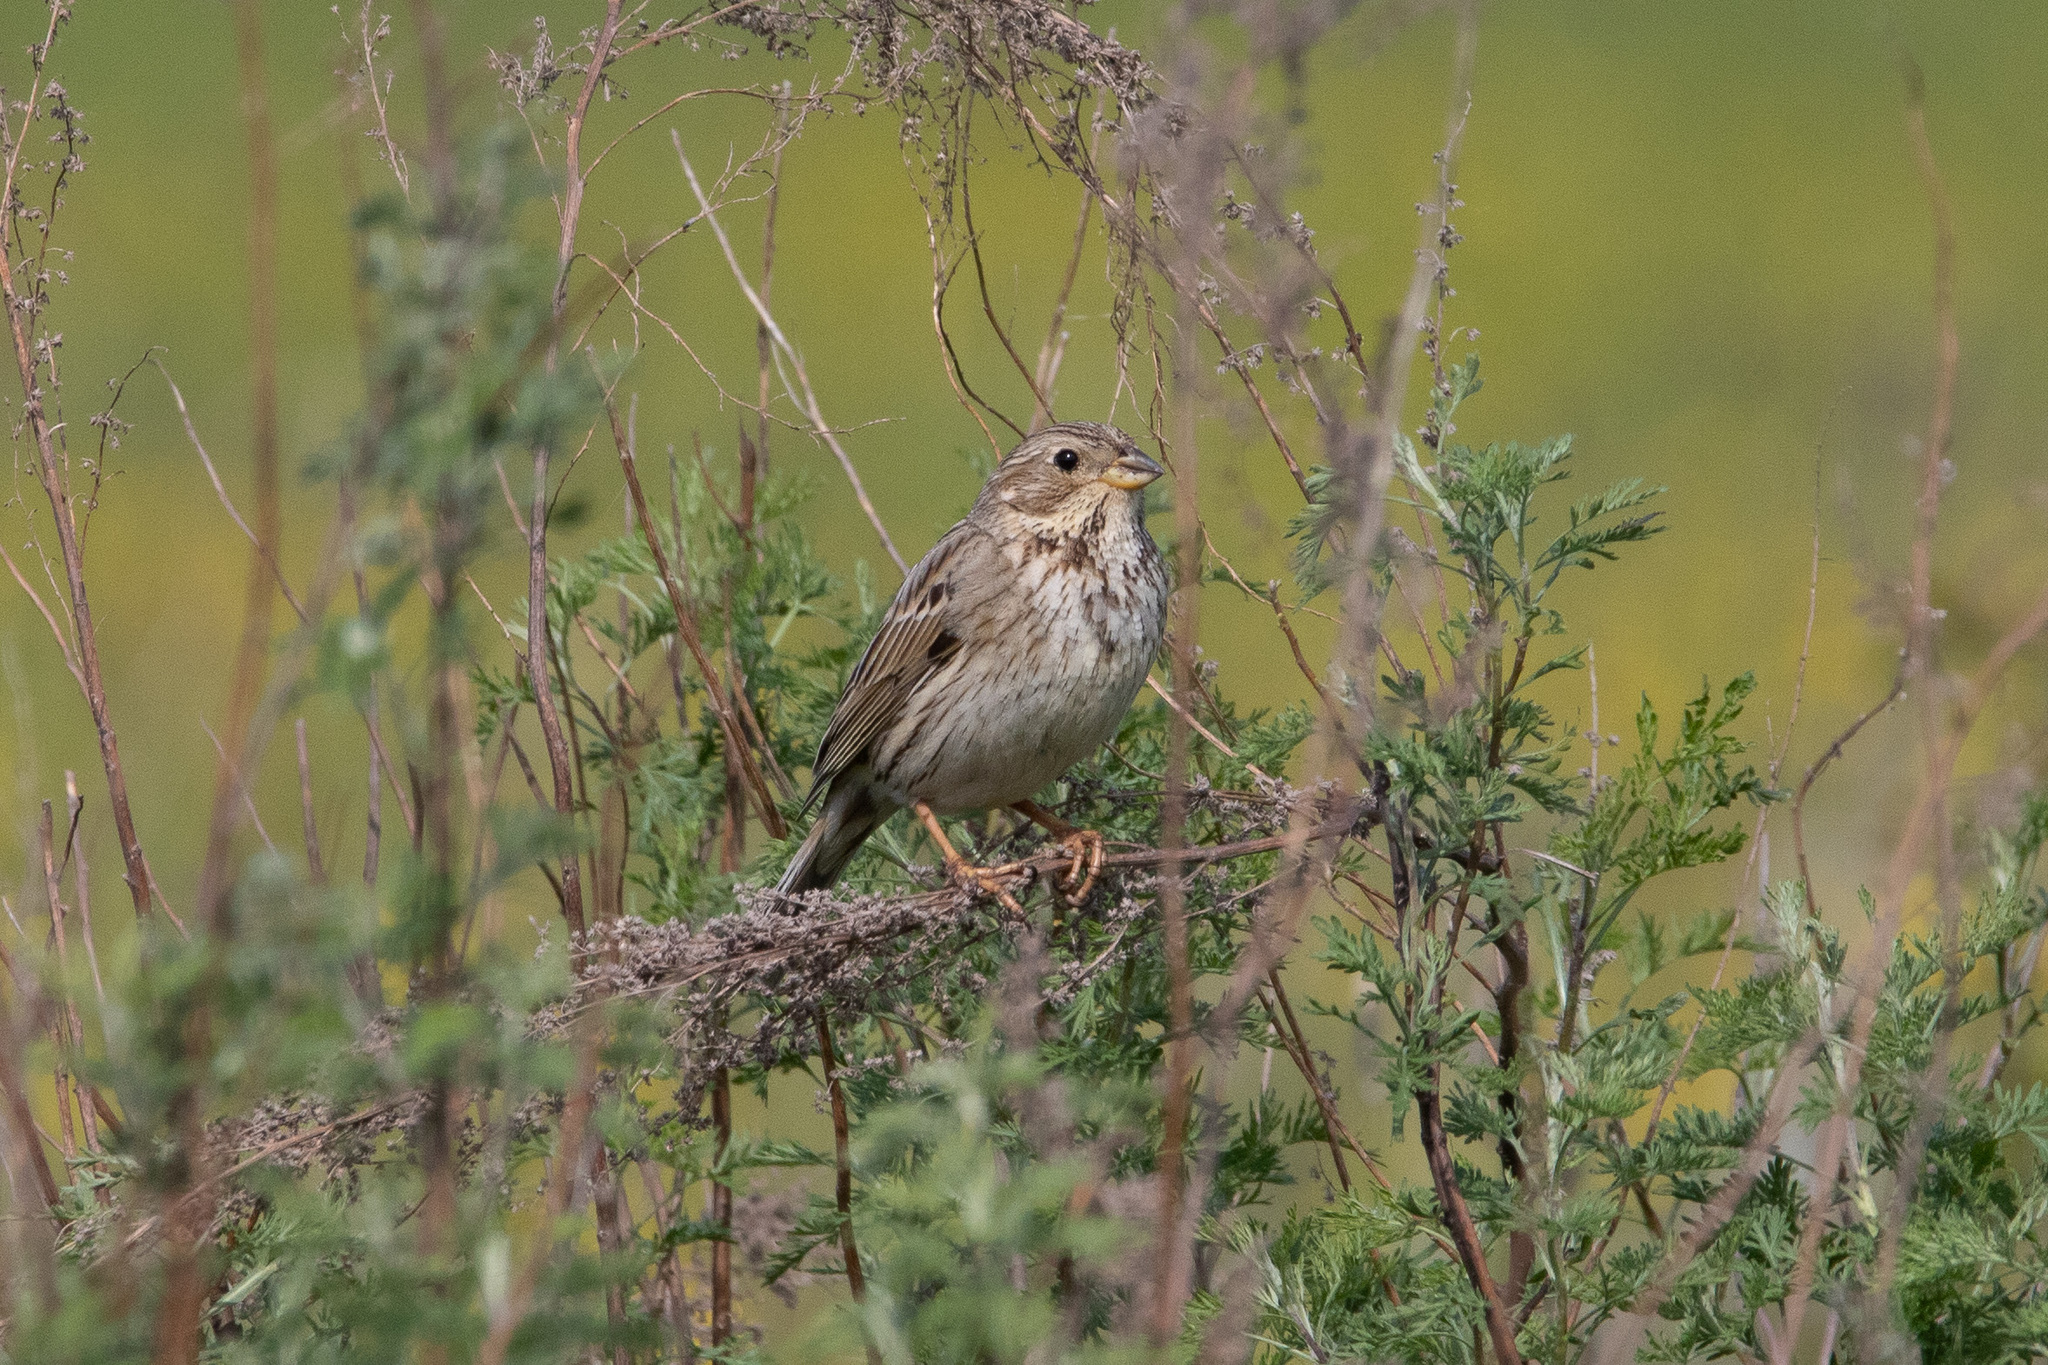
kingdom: Animalia
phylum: Chordata
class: Aves
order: Passeriformes
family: Emberizidae
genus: Emberiza
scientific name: Emberiza calandra
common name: Corn bunting
